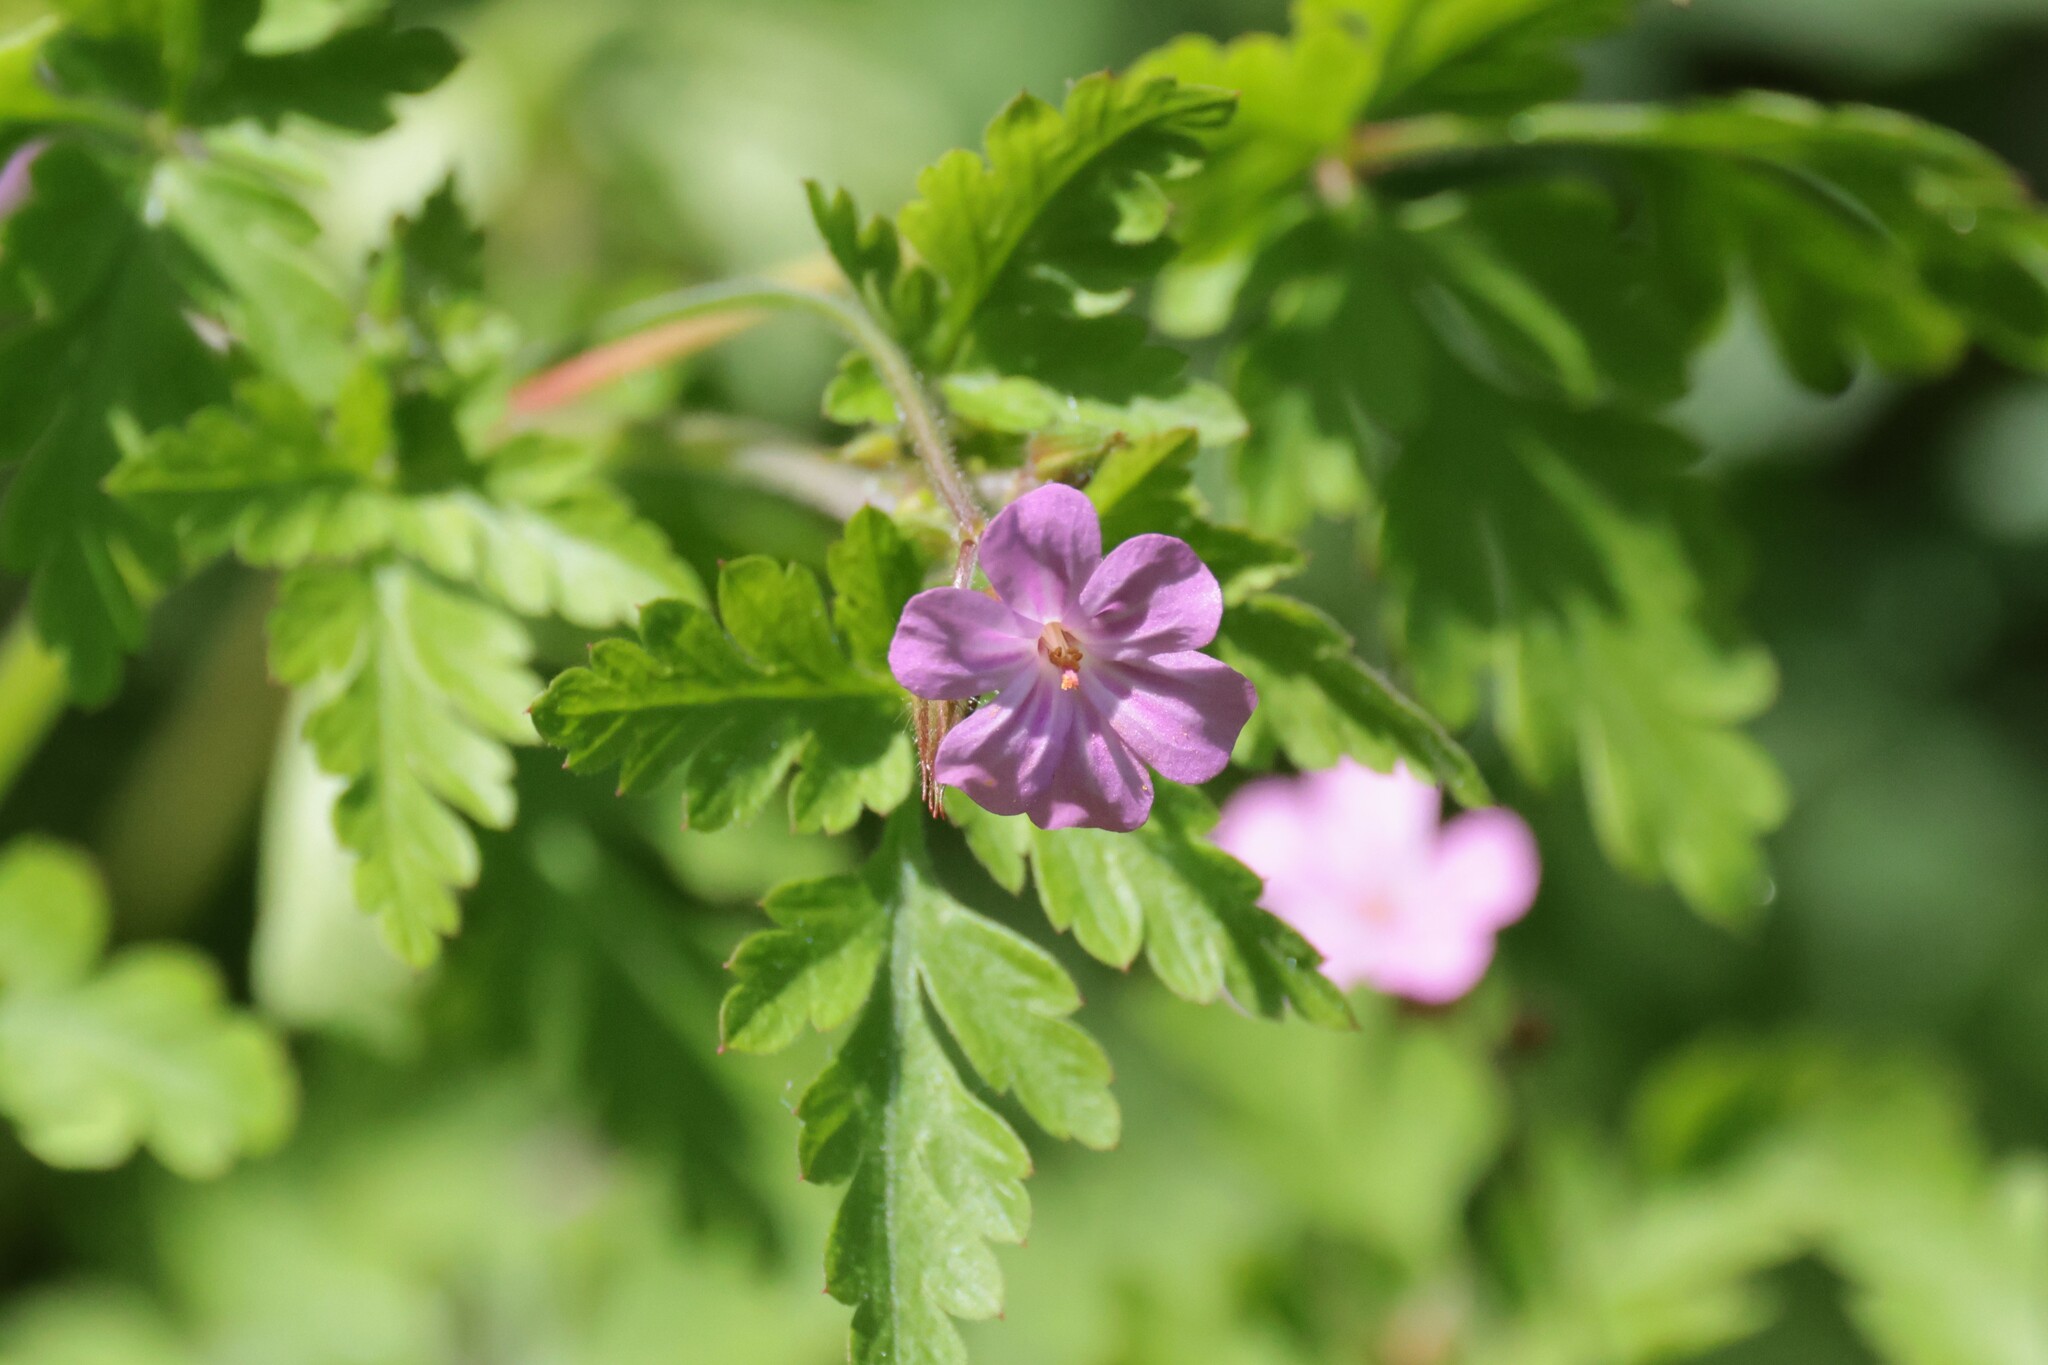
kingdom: Plantae
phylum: Tracheophyta
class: Magnoliopsida
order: Geraniales
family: Geraniaceae
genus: Geranium
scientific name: Geranium robertianum
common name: Herb-robert
